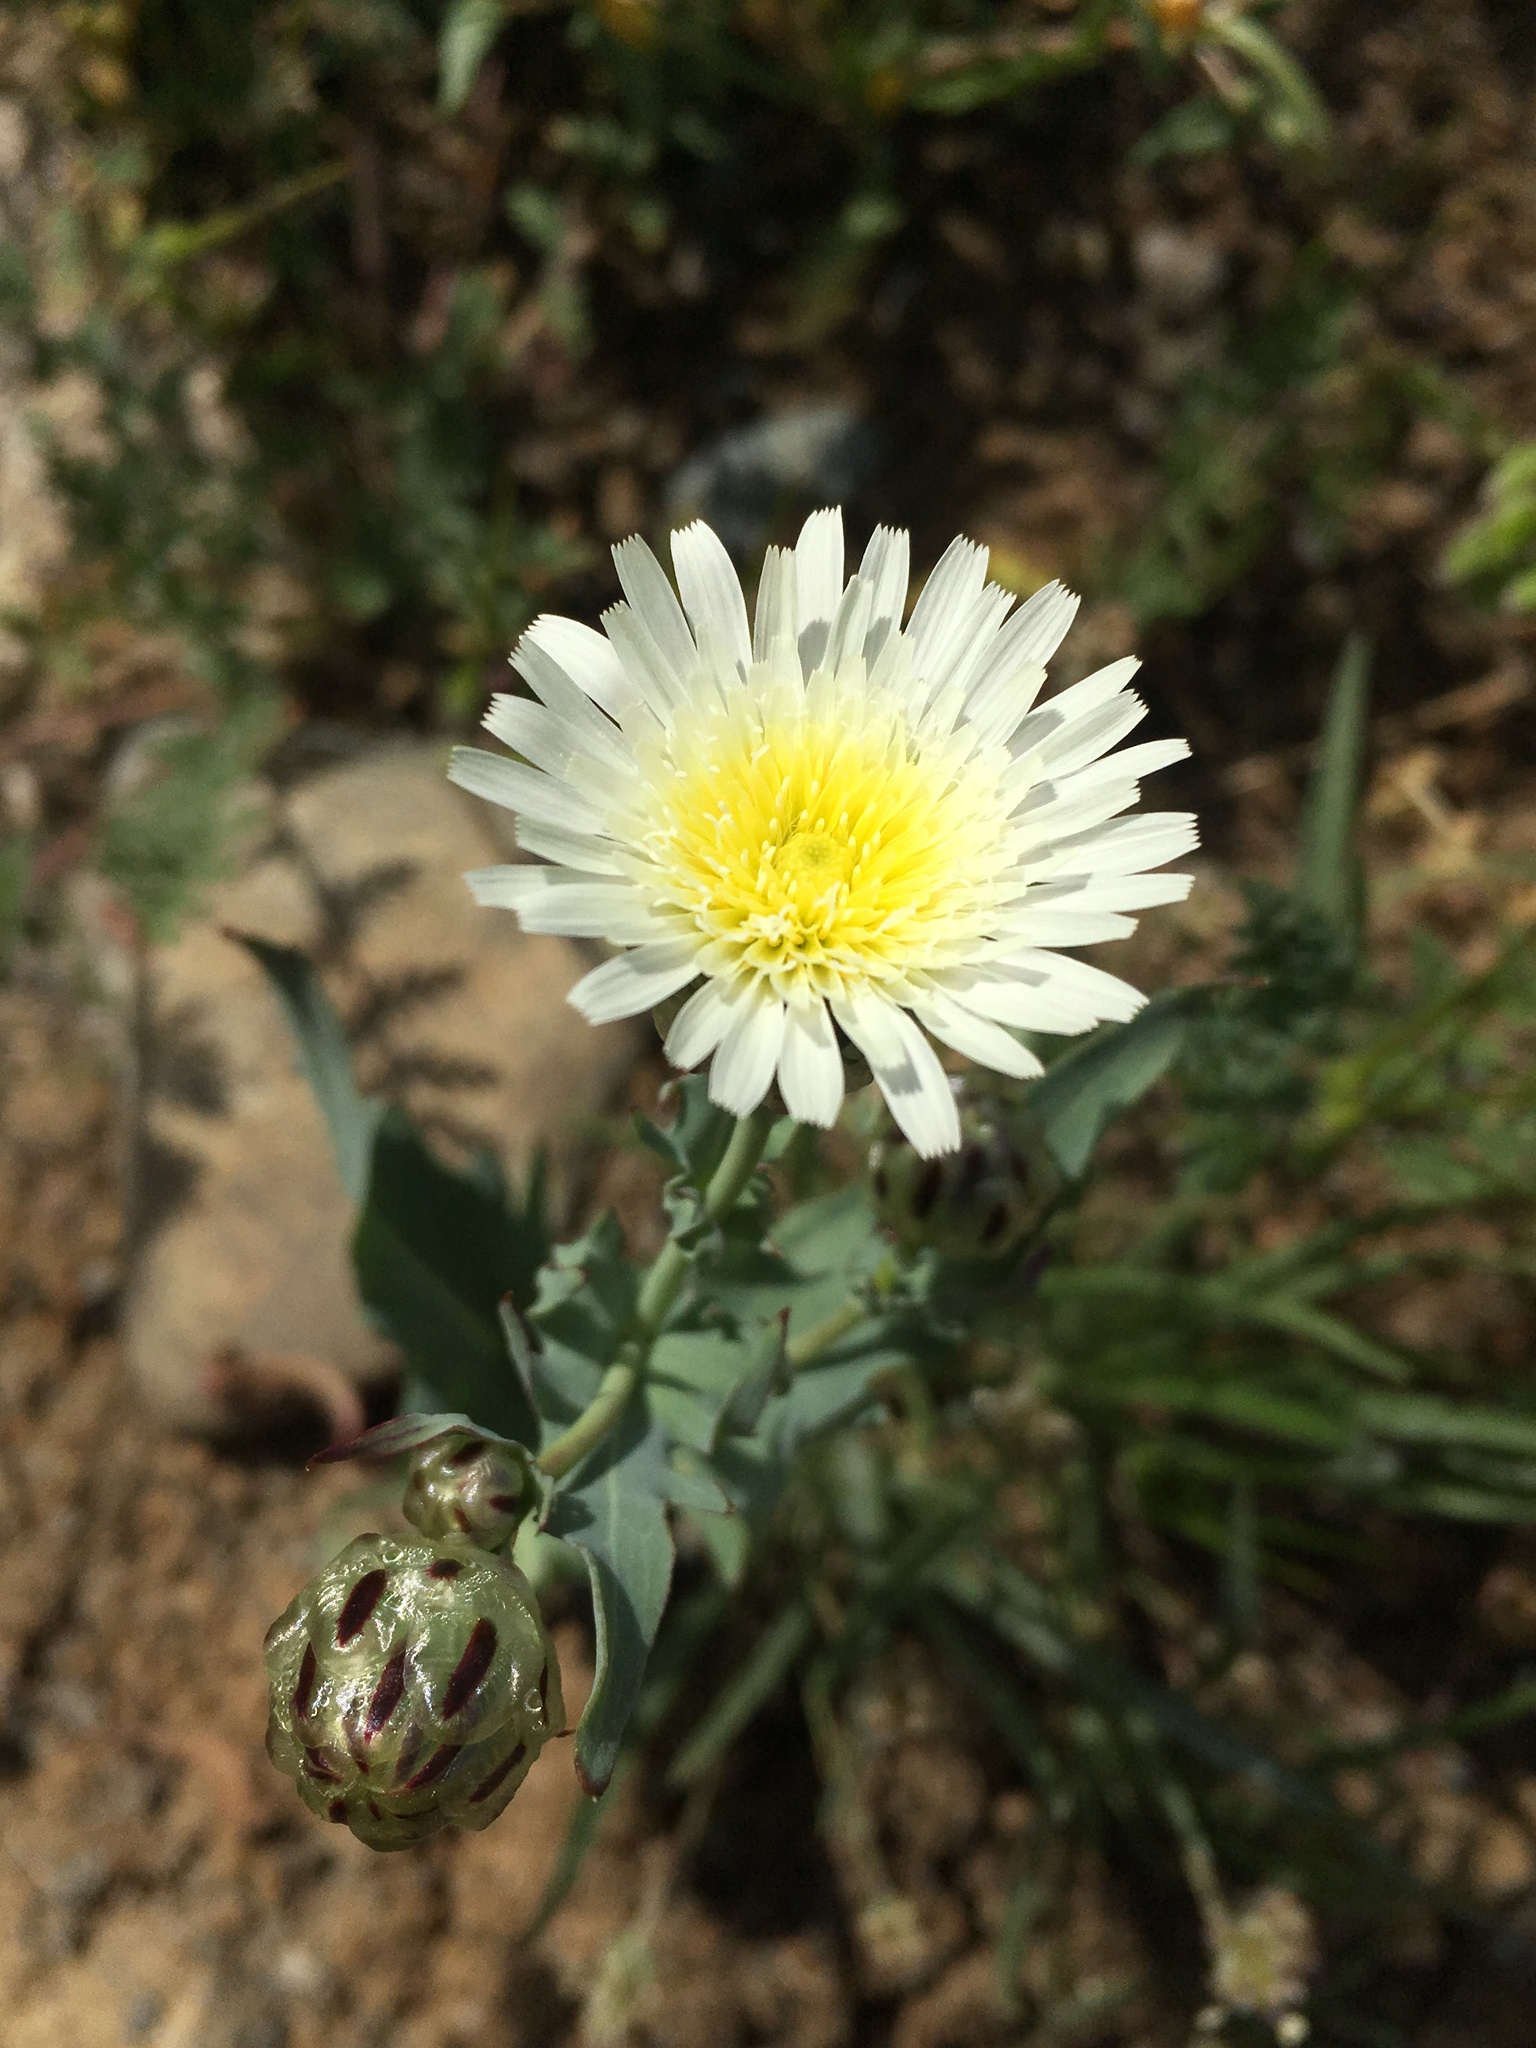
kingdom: Plantae
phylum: Tracheophyta
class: Magnoliopsida
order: Asterales
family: Asteraceae
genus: Malacothrix
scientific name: Malacothrix coulteri
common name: Snake's-head
